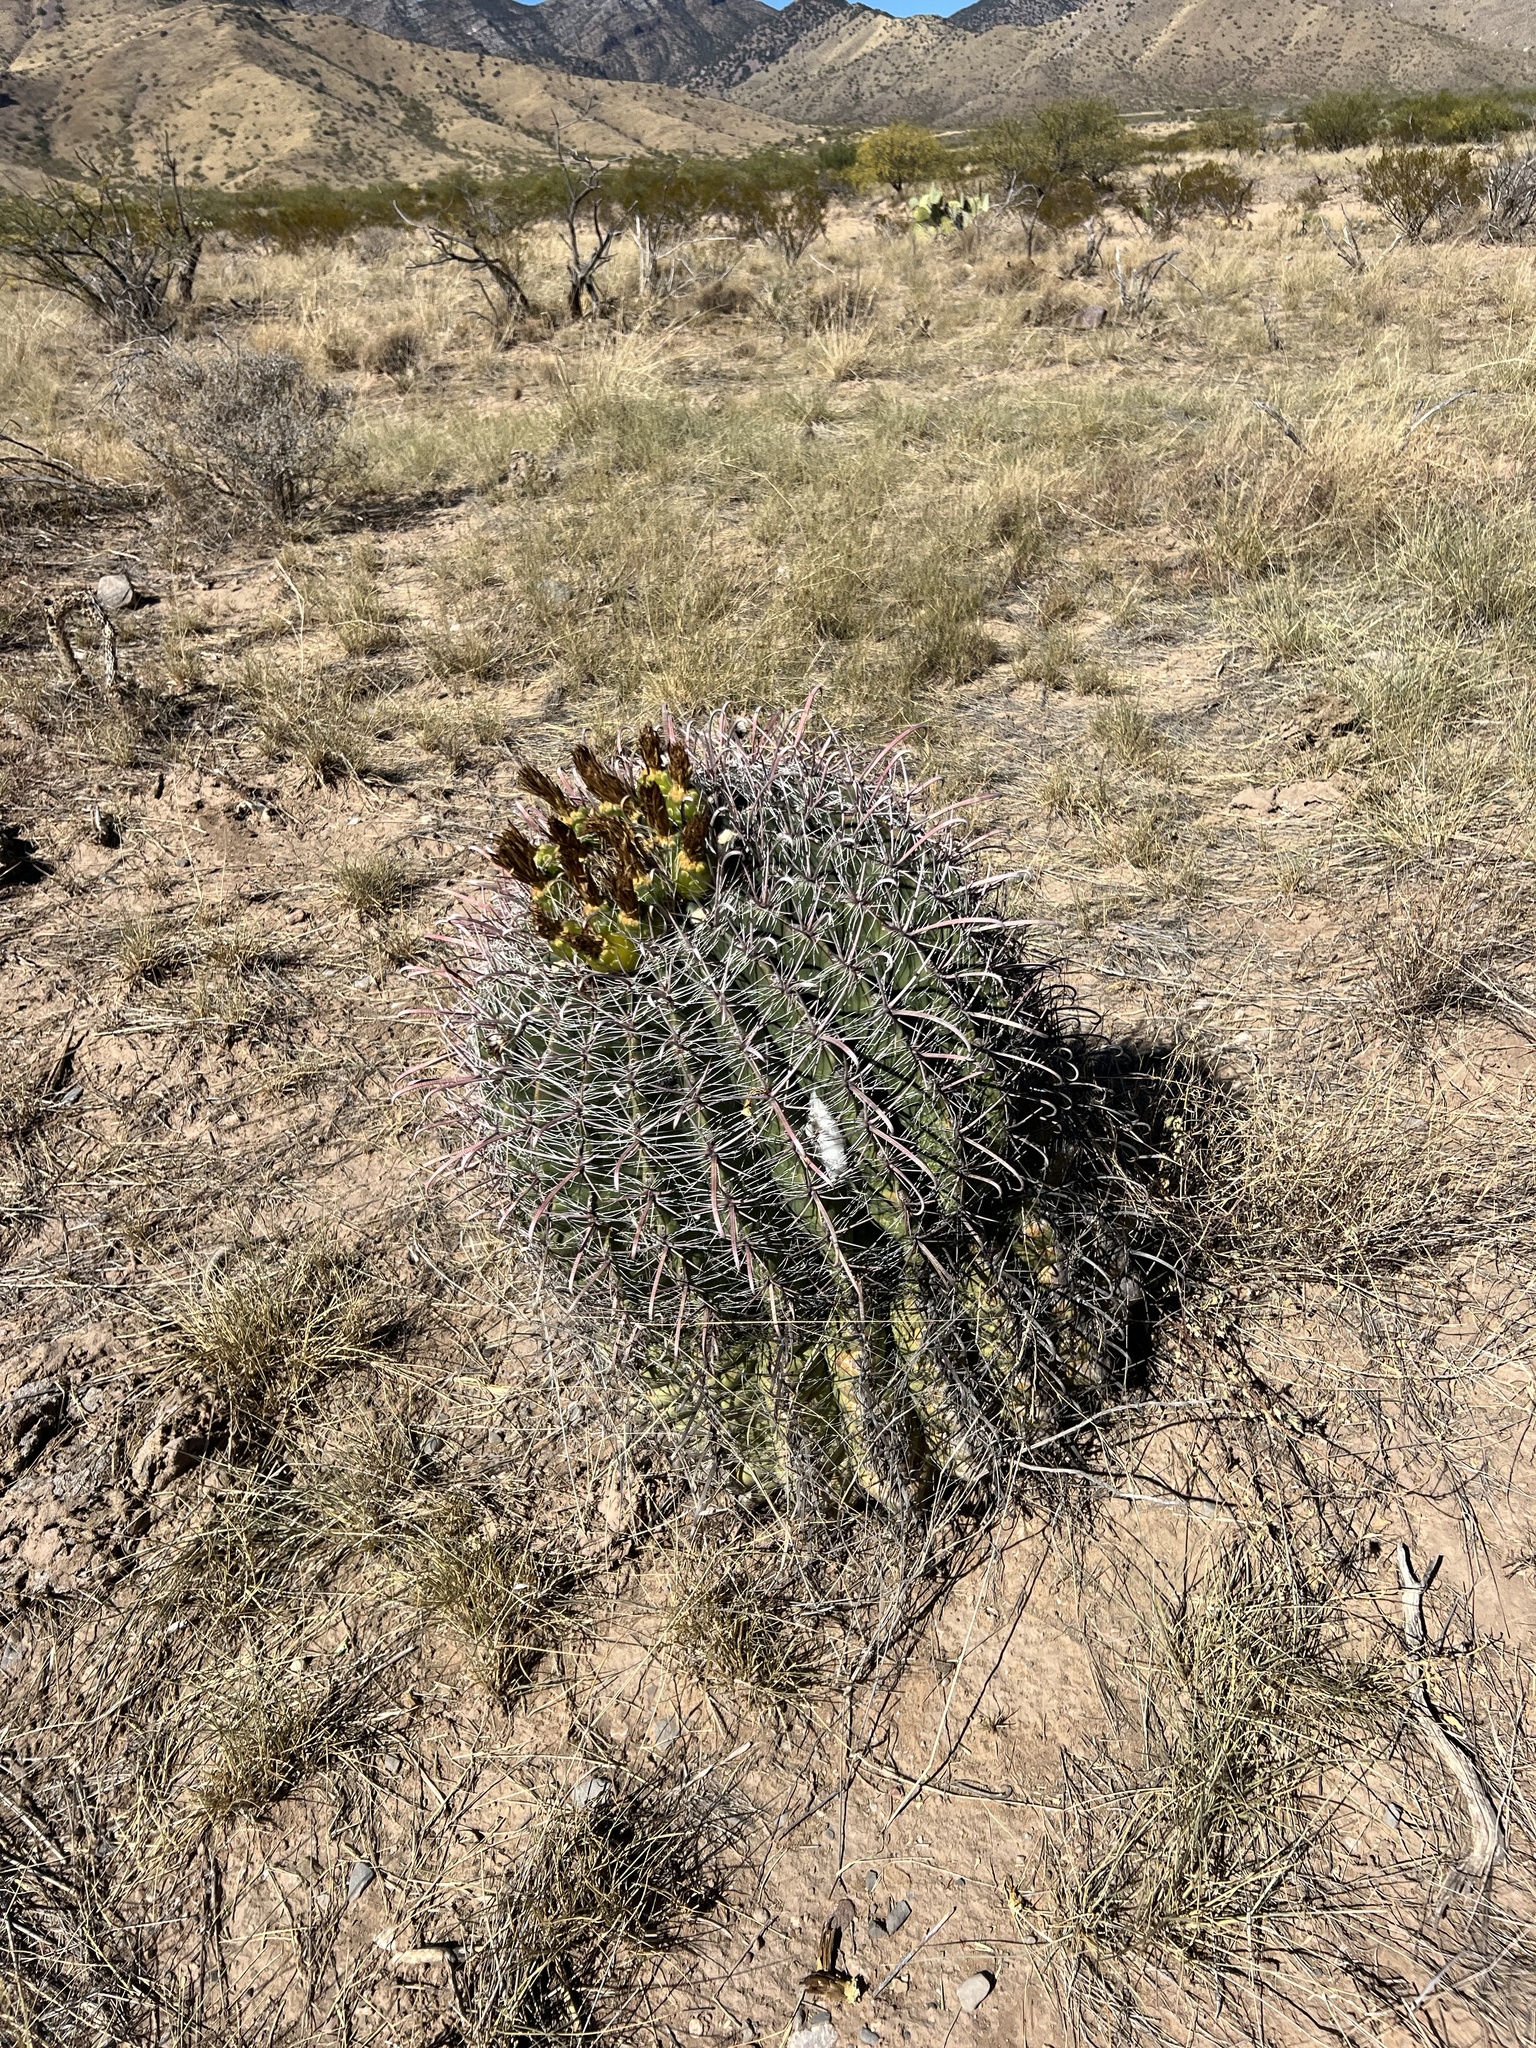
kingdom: Plantae
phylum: Tracheophyta
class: Magnoliopsida
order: Caryophyllales
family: Cactaceae
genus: Ferocactus
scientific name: Ferocactus wislizeni
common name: Candy barrel cactus
